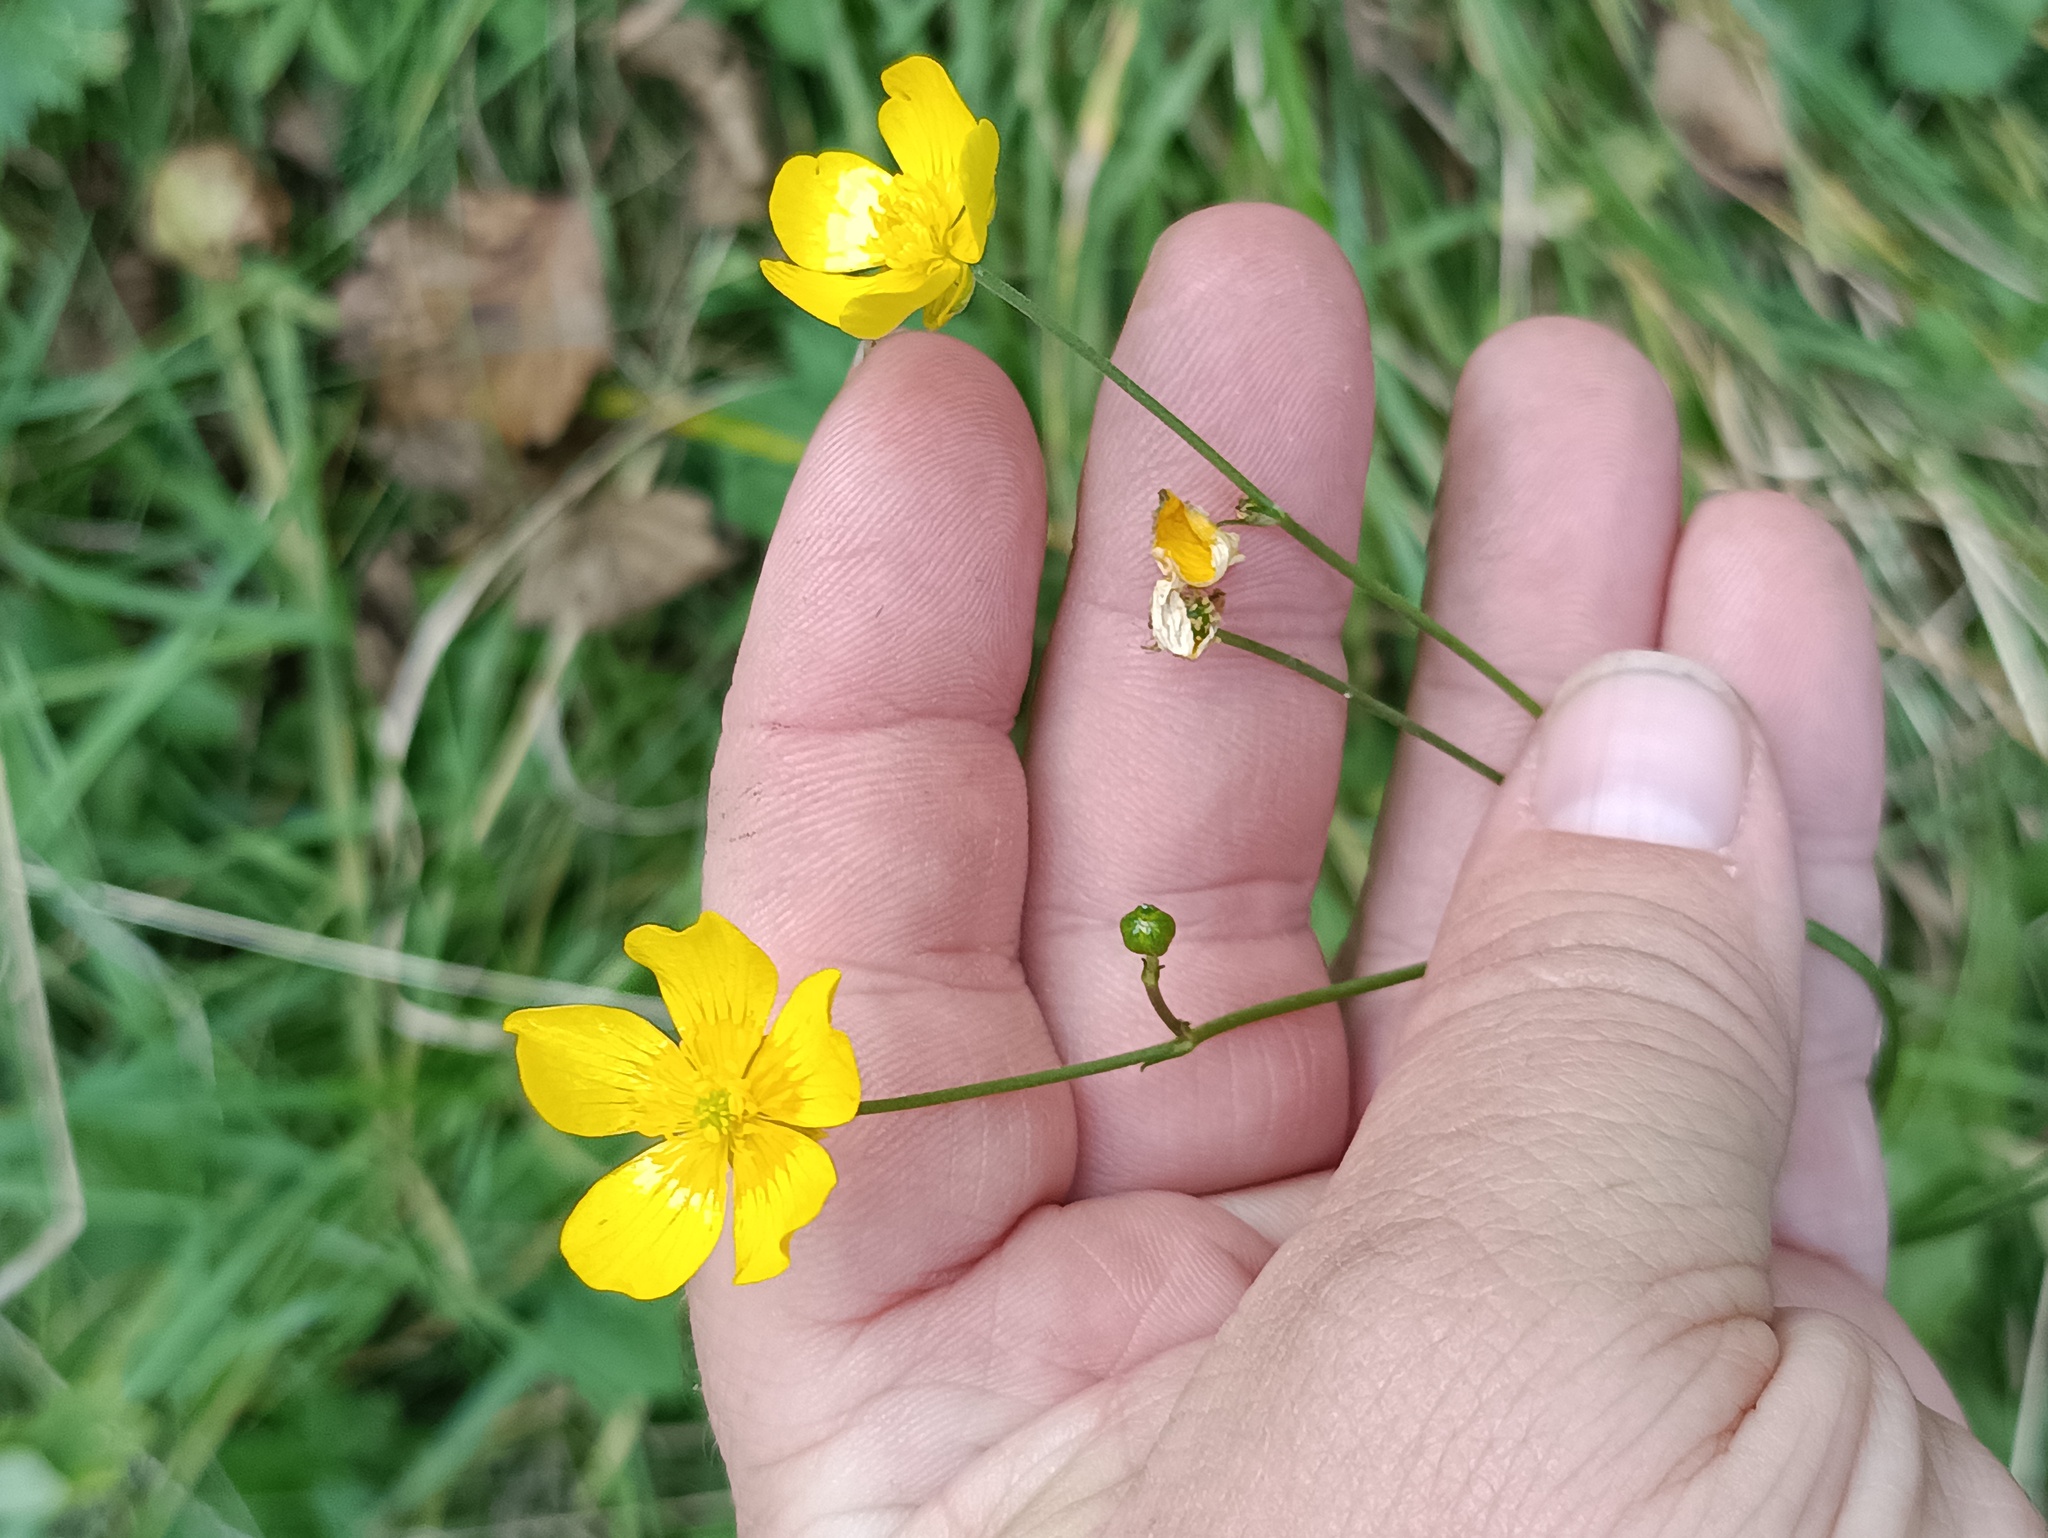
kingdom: Plantae
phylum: Tracheophyta
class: Magnoliopsida
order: Ranunculales
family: Ranunculaceae
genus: Ranunculus
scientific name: Ranunculus acris
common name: Meadow buttercup
